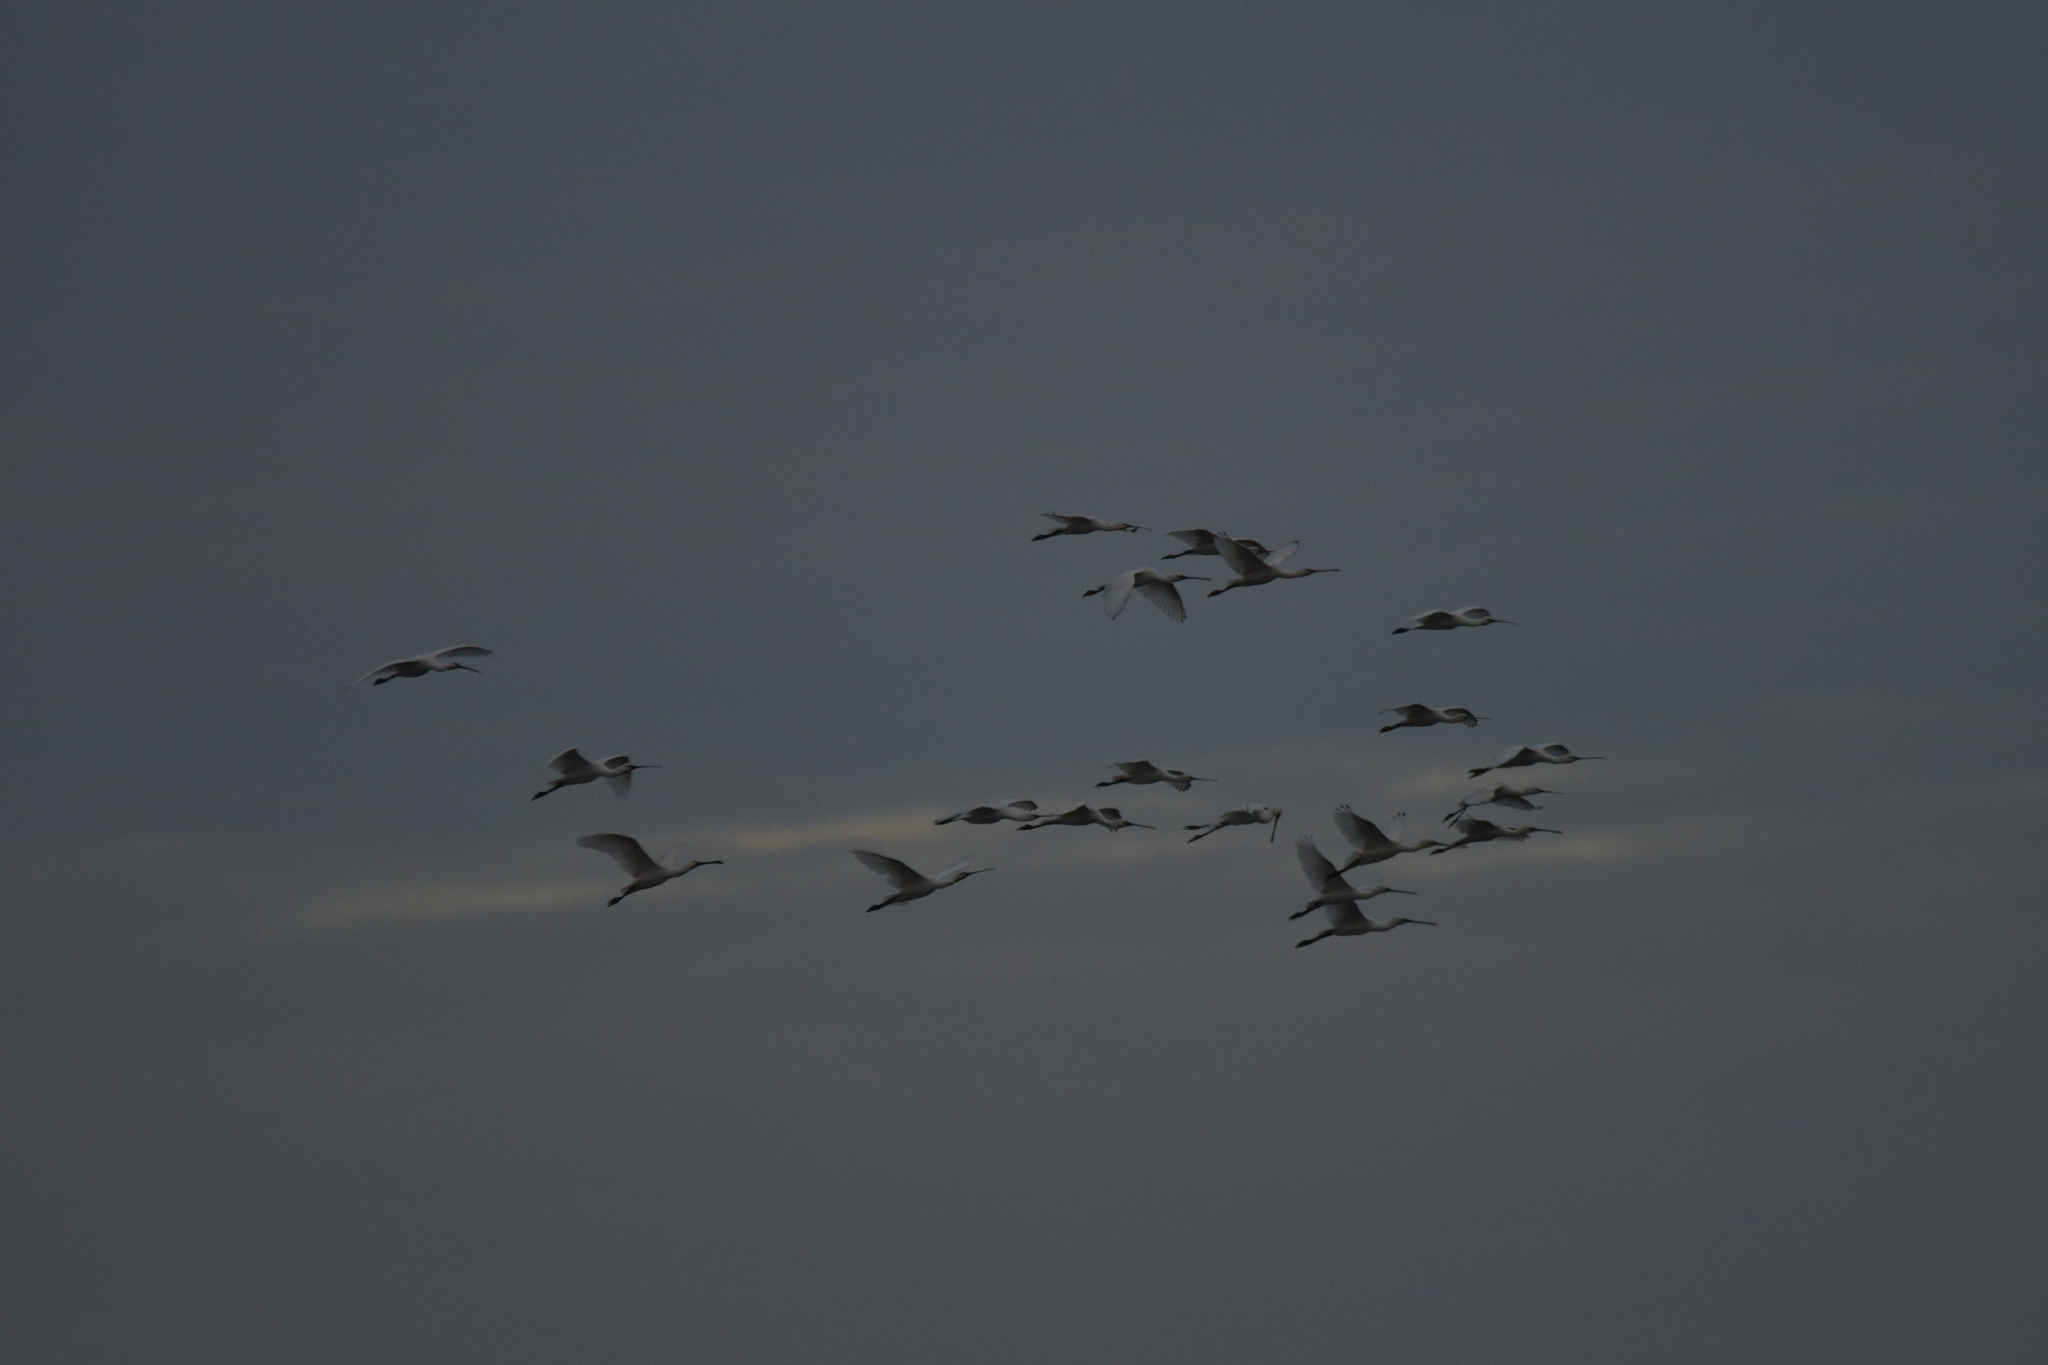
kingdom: Animalia
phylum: Chordata
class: Aves
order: Pelecaniformes
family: Threskiornithidae
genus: Platalea
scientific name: Platalea leucorodia
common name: Eurasian spoonbill
